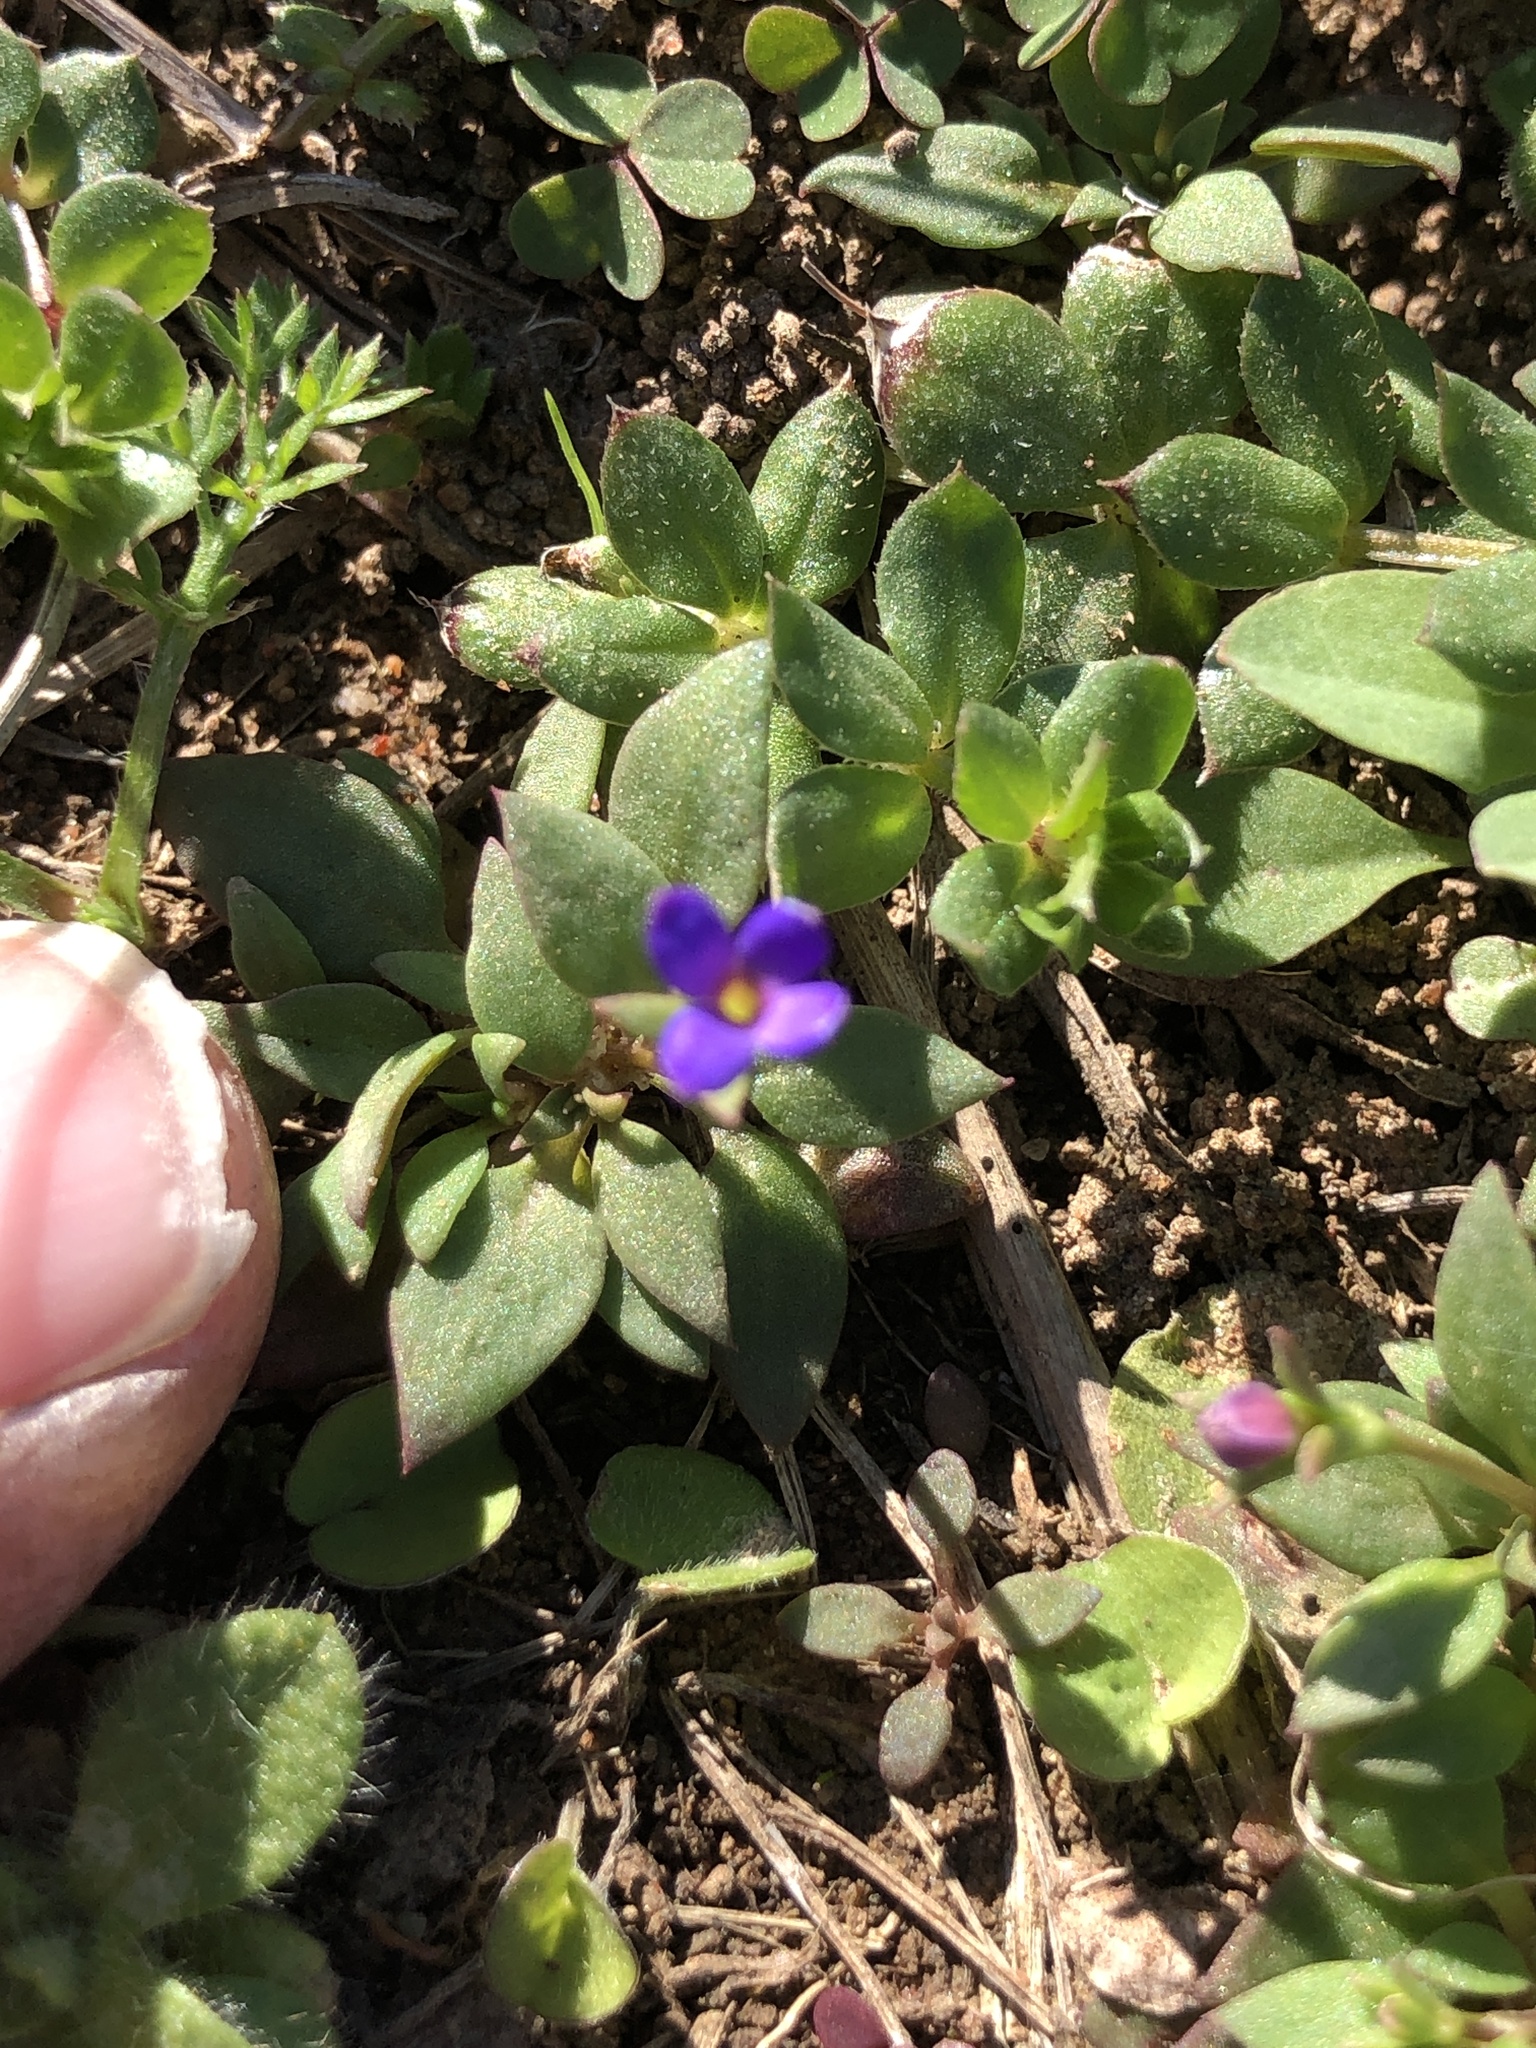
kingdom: Plantae
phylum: Tracheophyta
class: Magnoliopsida
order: Gentianales
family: Rubiaceae
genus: Houstonia
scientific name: Houstonia pusilla
